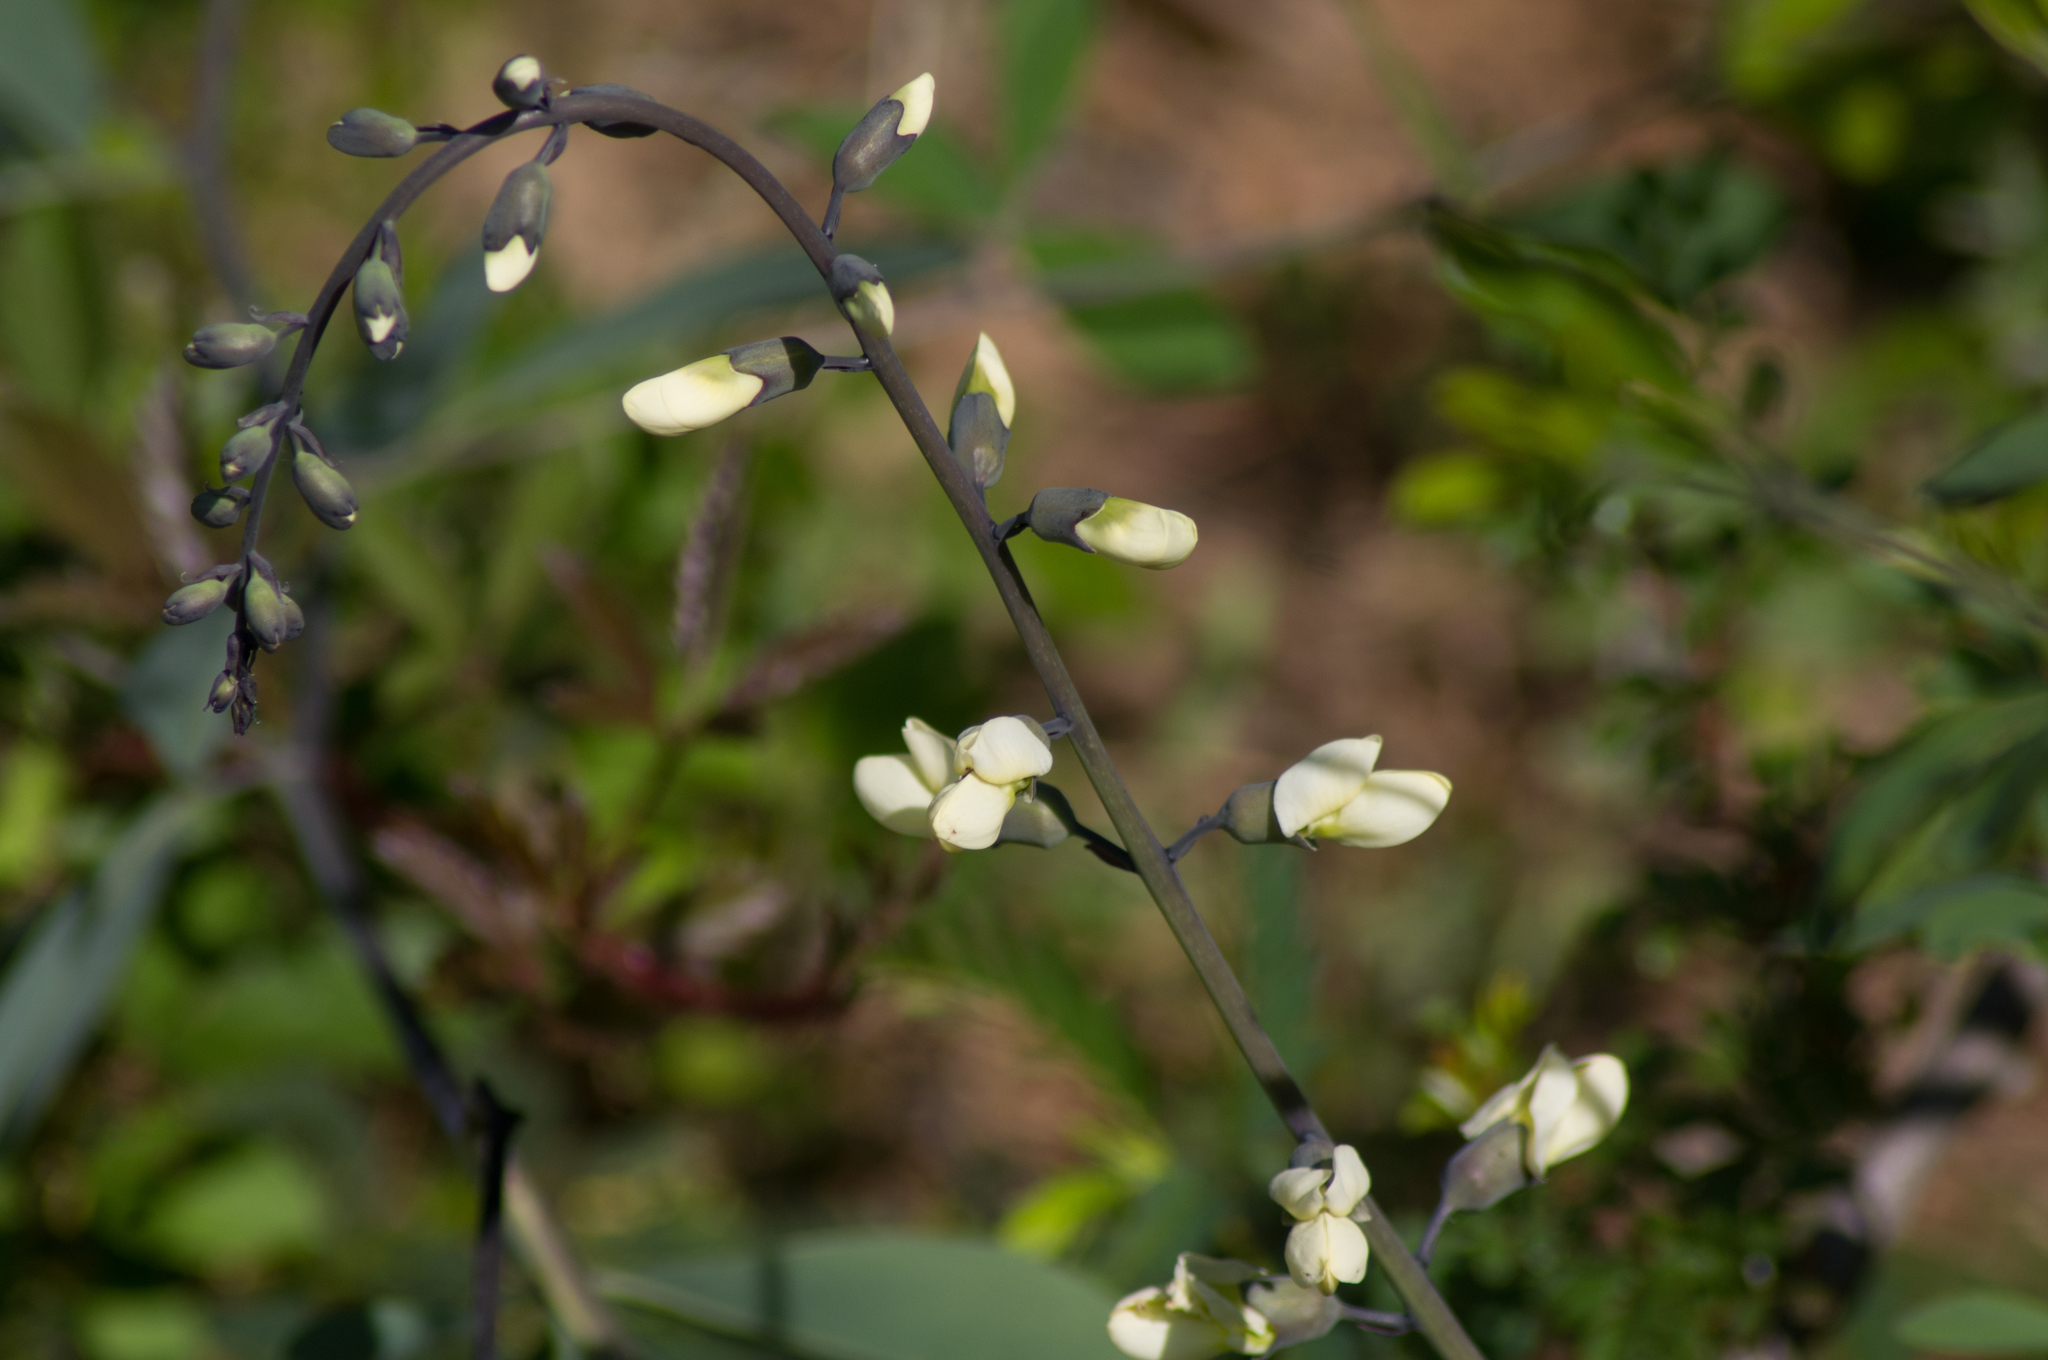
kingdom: Plantae
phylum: Tracheophyta
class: Magnoliopsida
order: Fabales
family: Fabaceae
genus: Baptisia
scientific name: Baptisia alba
